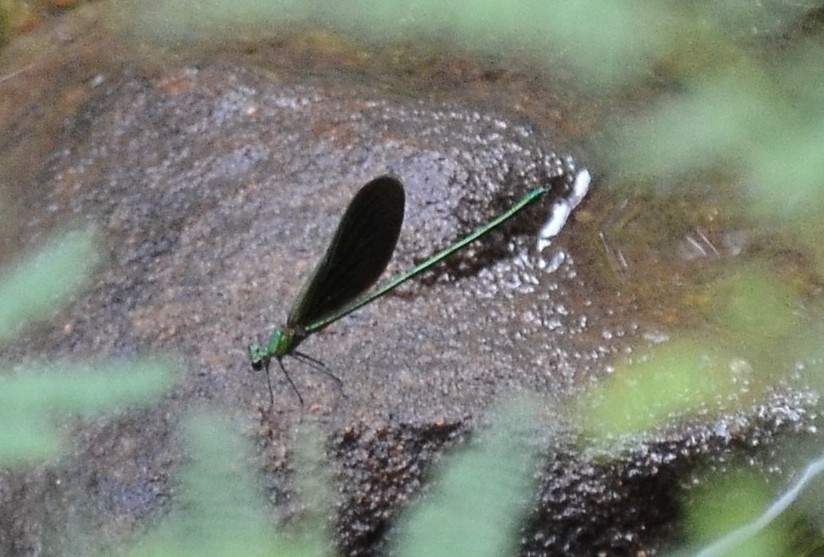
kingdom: Animalia
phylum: Arthropoda
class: Insecta
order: Odonata
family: Calopterygidae
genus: Neurobasis
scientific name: Neurobasis chinensis
